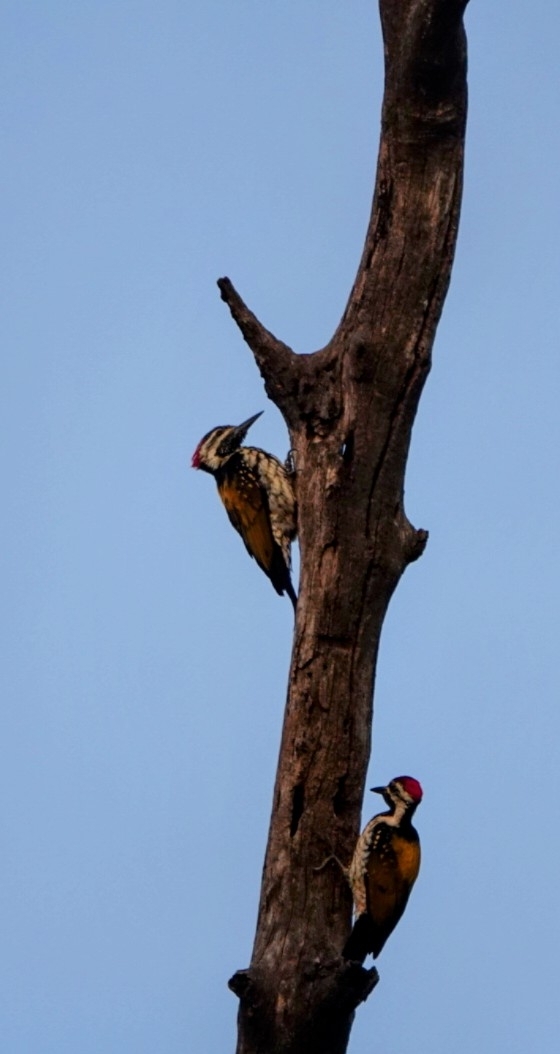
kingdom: Animalia
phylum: Chordata
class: Aves
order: Piciformes
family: Picidae
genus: Dinopium
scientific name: Dinopium benghalense
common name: Black-rumped flameback
